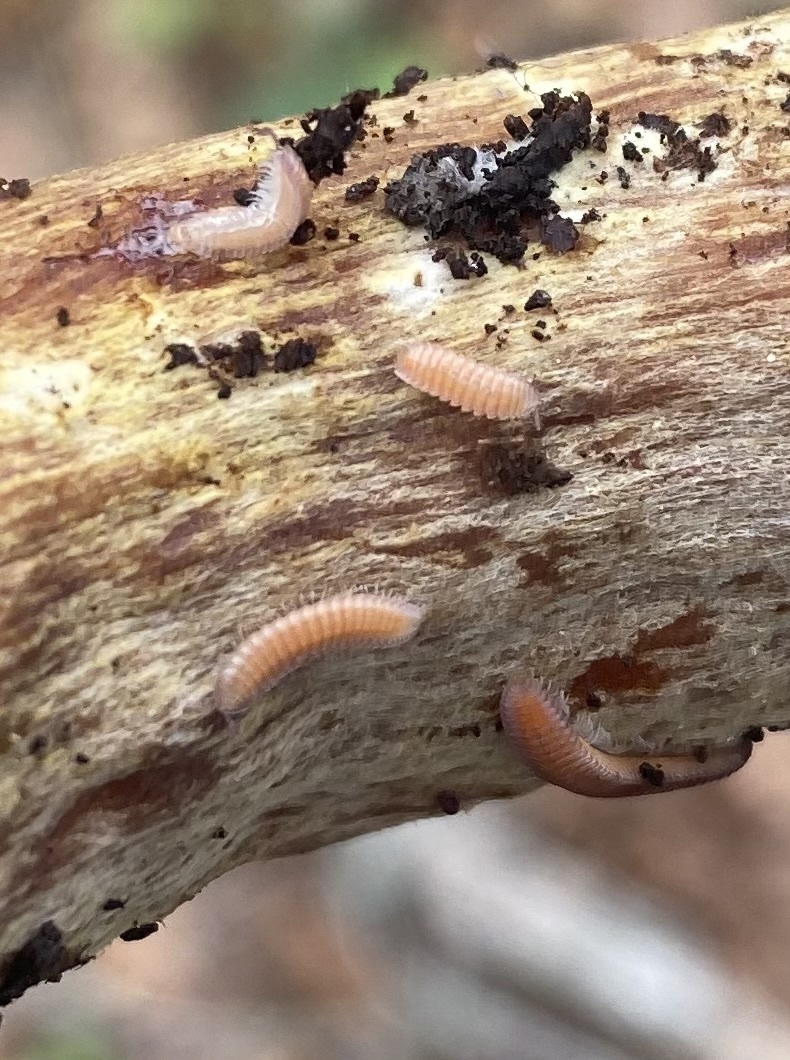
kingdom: Animalia
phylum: Arthropoda
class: Diplopoda
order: Polyzoniida
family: Hirudisomatidae
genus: Hirudisoma
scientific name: Hirudisoma roseum
